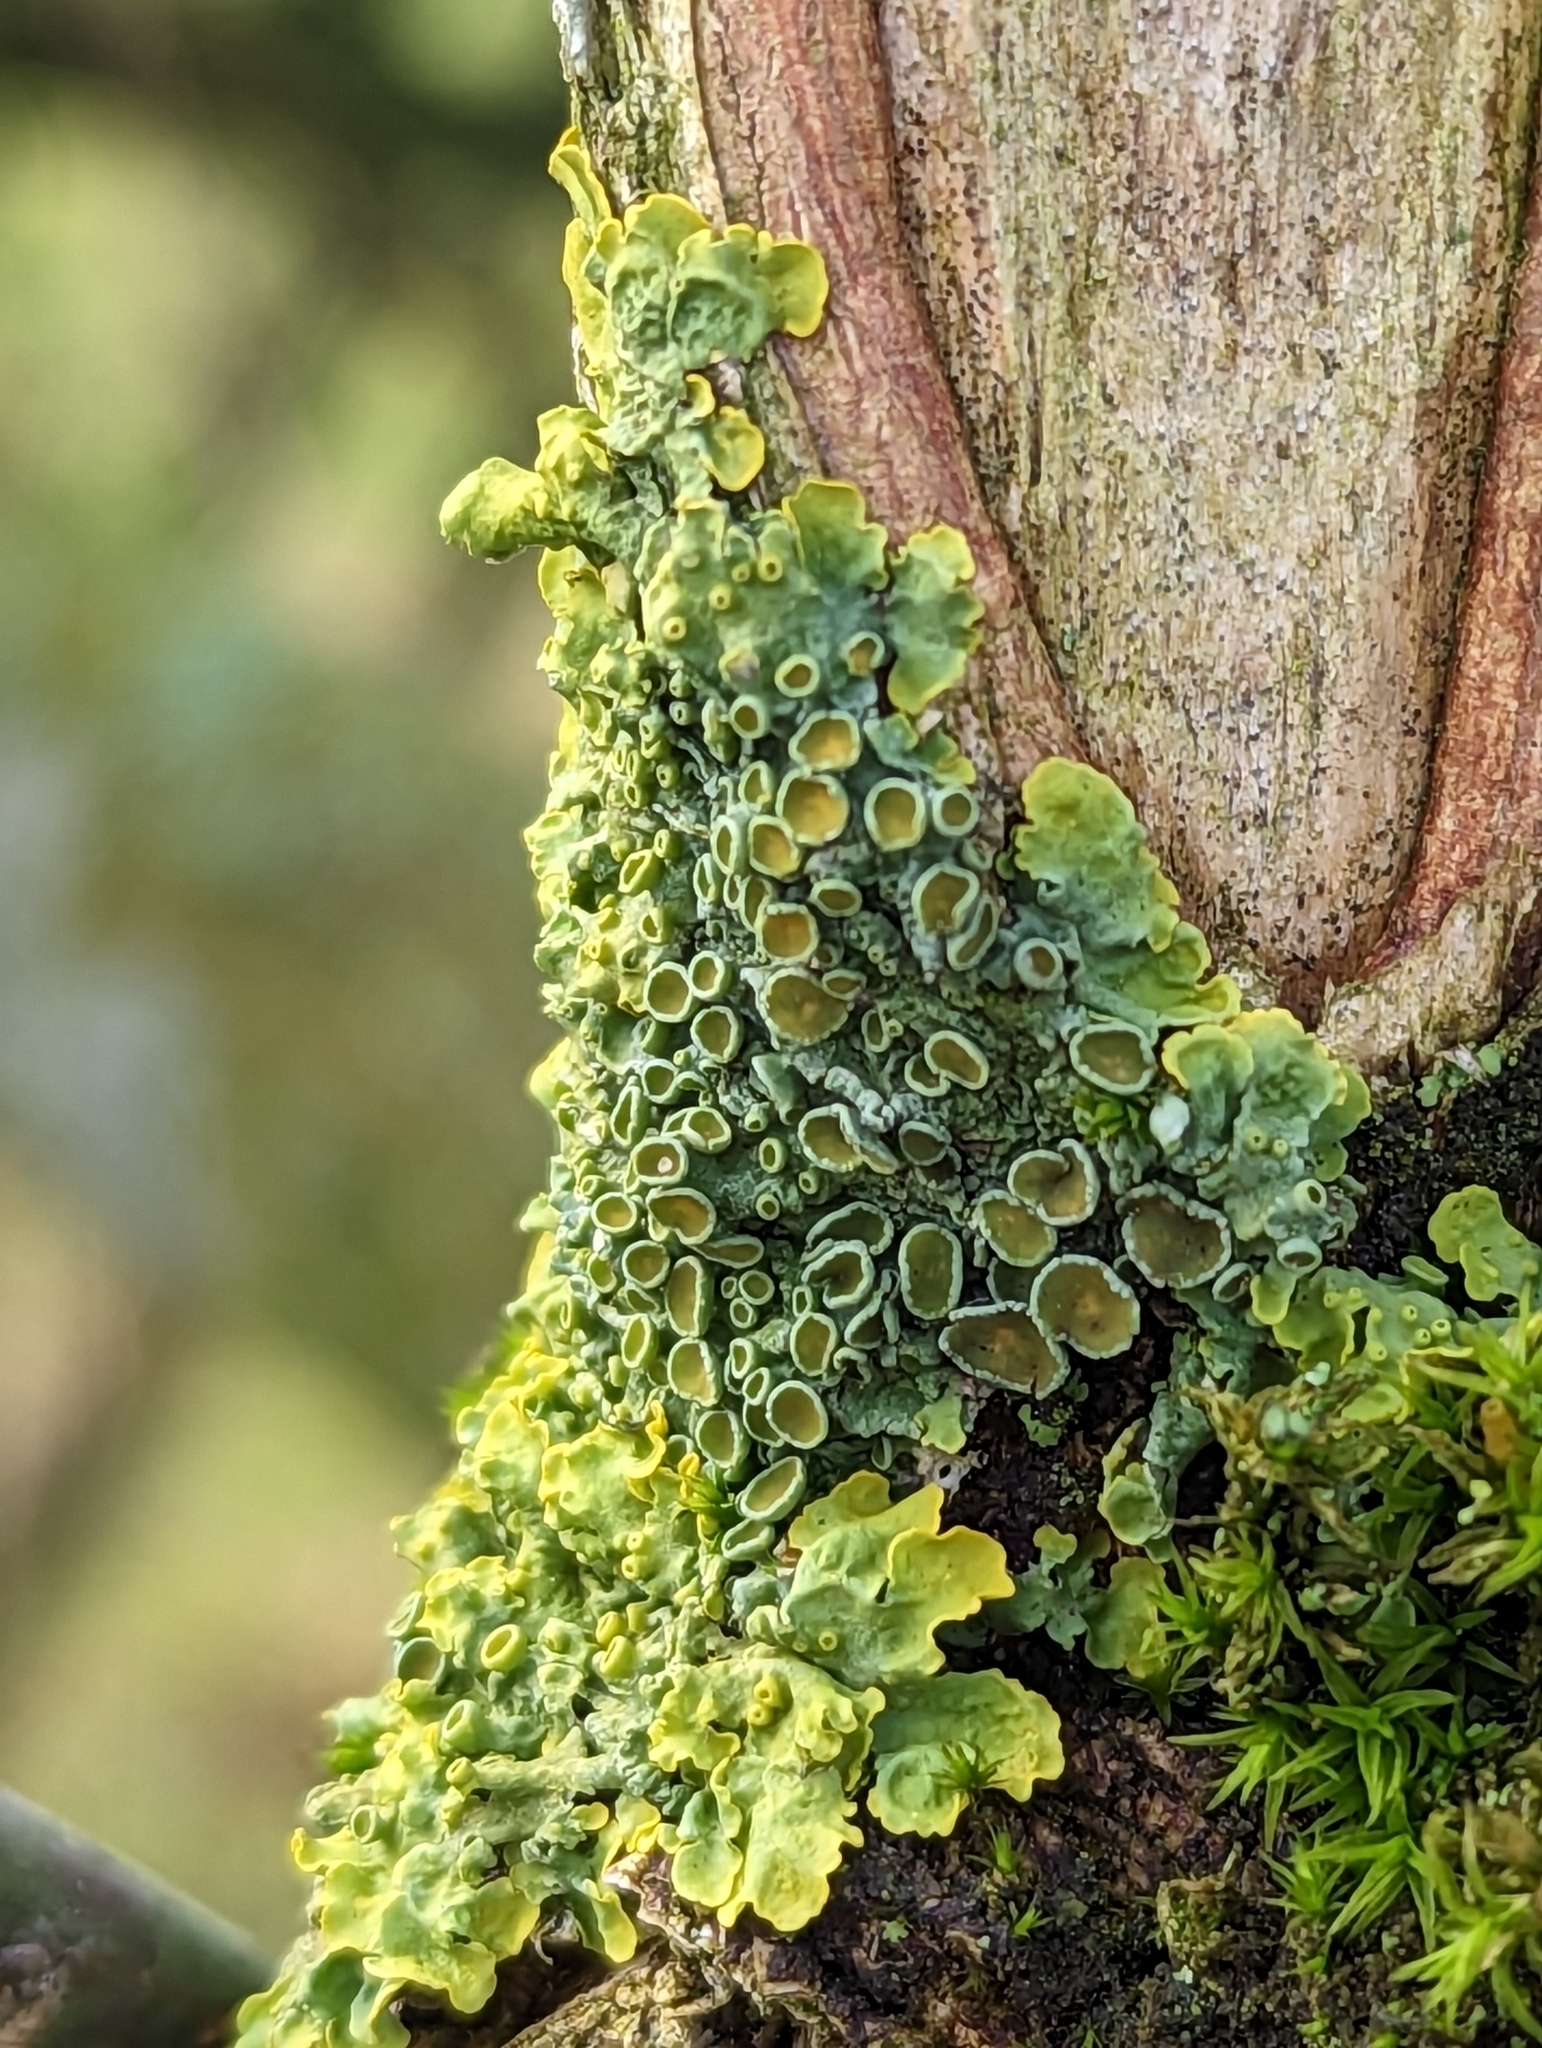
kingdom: Fungi
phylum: Ascomycota
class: Lecanoromycetes
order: Teloschistales
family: Teloschistaceae
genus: Xanthoria
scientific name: Xanthoria parietina
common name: Common orange lichen
